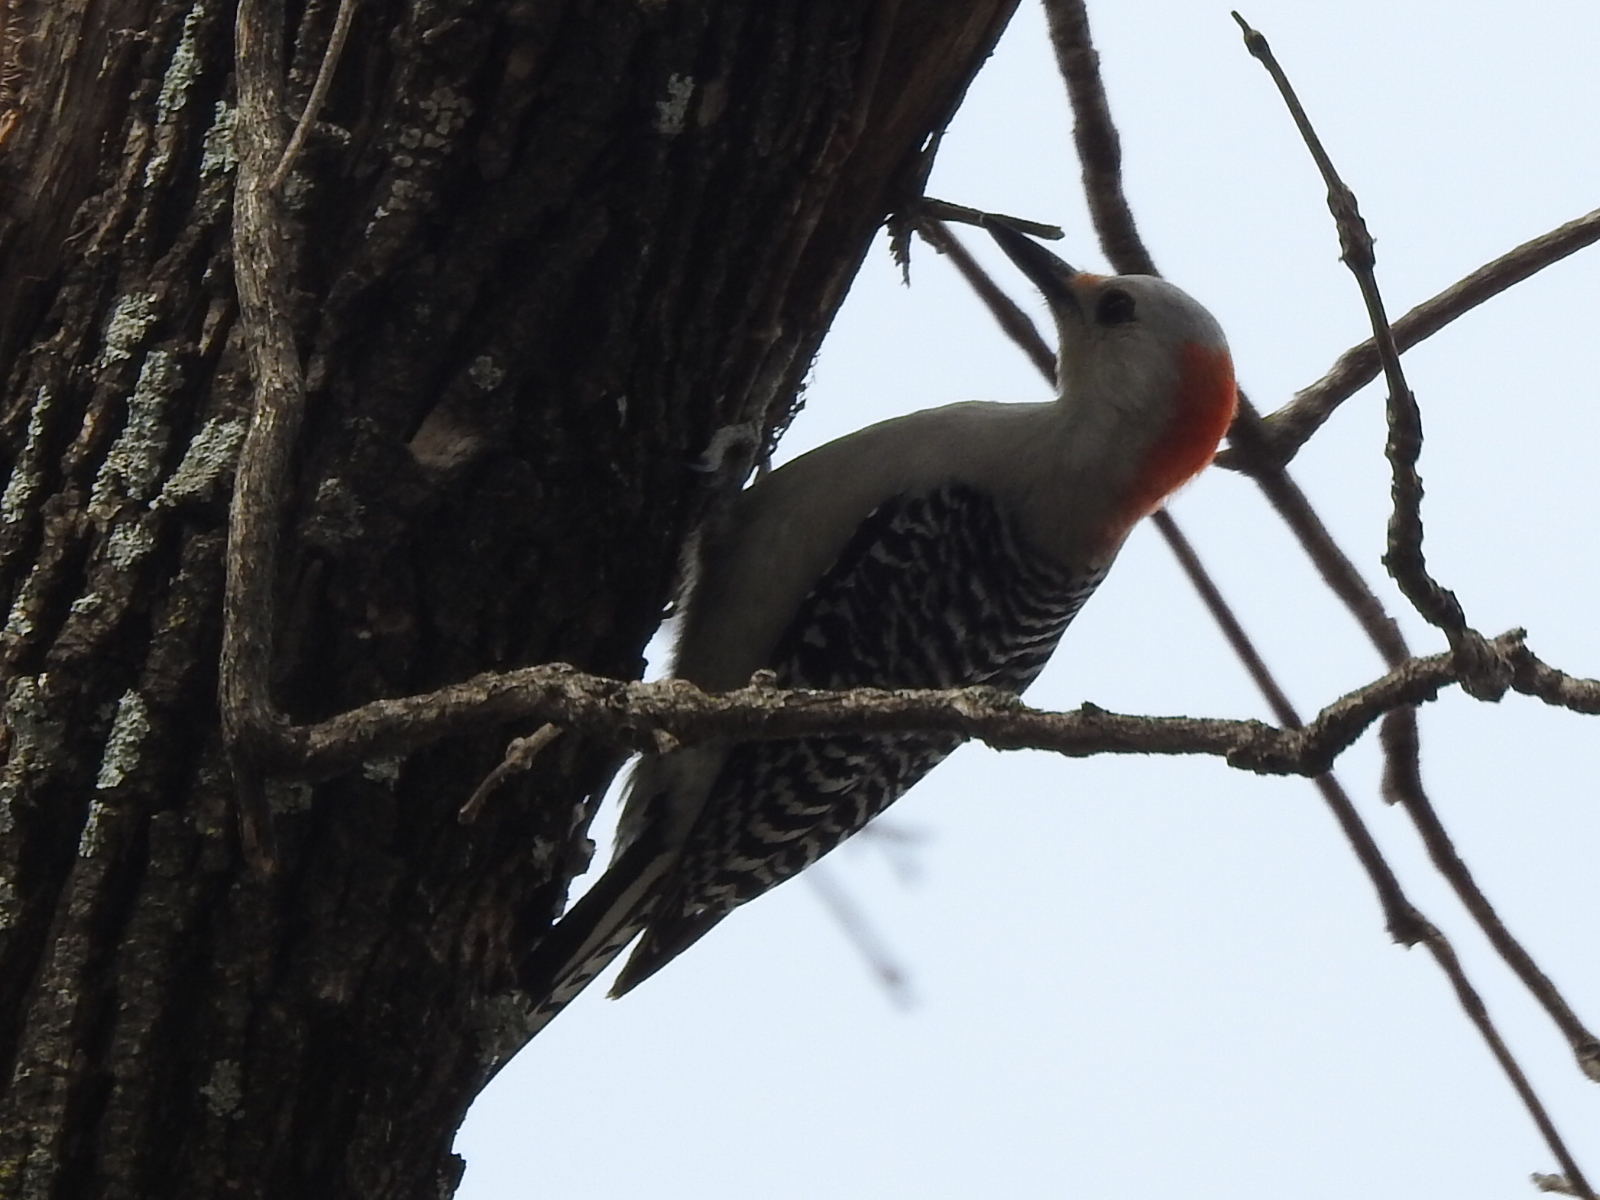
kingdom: Animalia
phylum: Chordata
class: Aves
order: Piciformes
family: Picidae
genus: Melanerpes
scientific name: Melanerpes carolinus
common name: Red-bellied woodpecker
